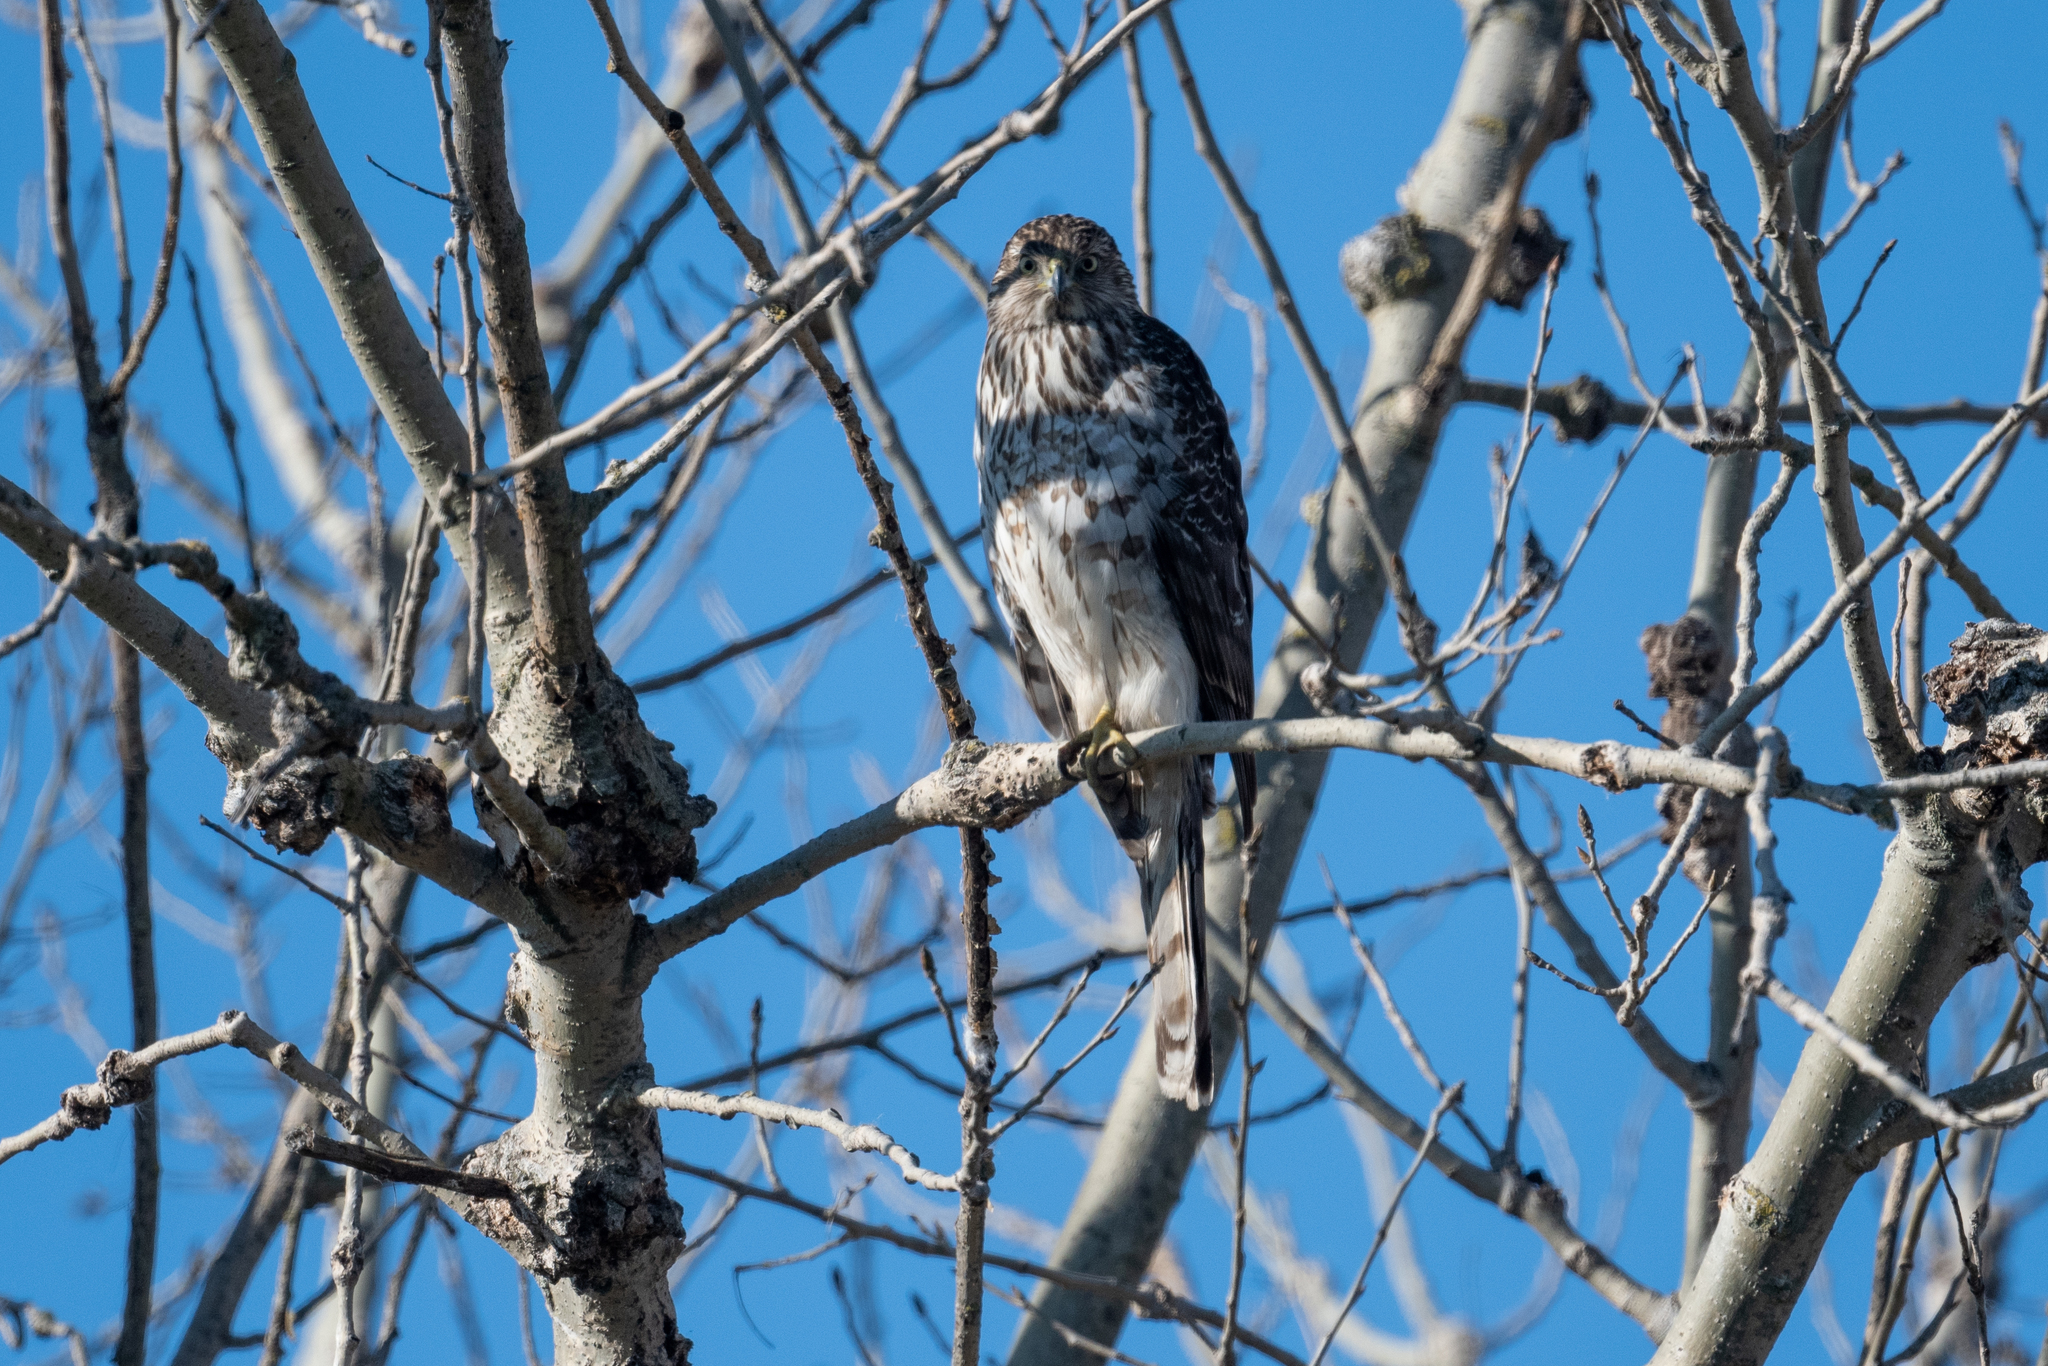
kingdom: Animalia
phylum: Chordata
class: Aves
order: Accipitriformes
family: Accipitridae
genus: Accipiter
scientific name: Accipiter cooperii
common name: Cooper's hawk
